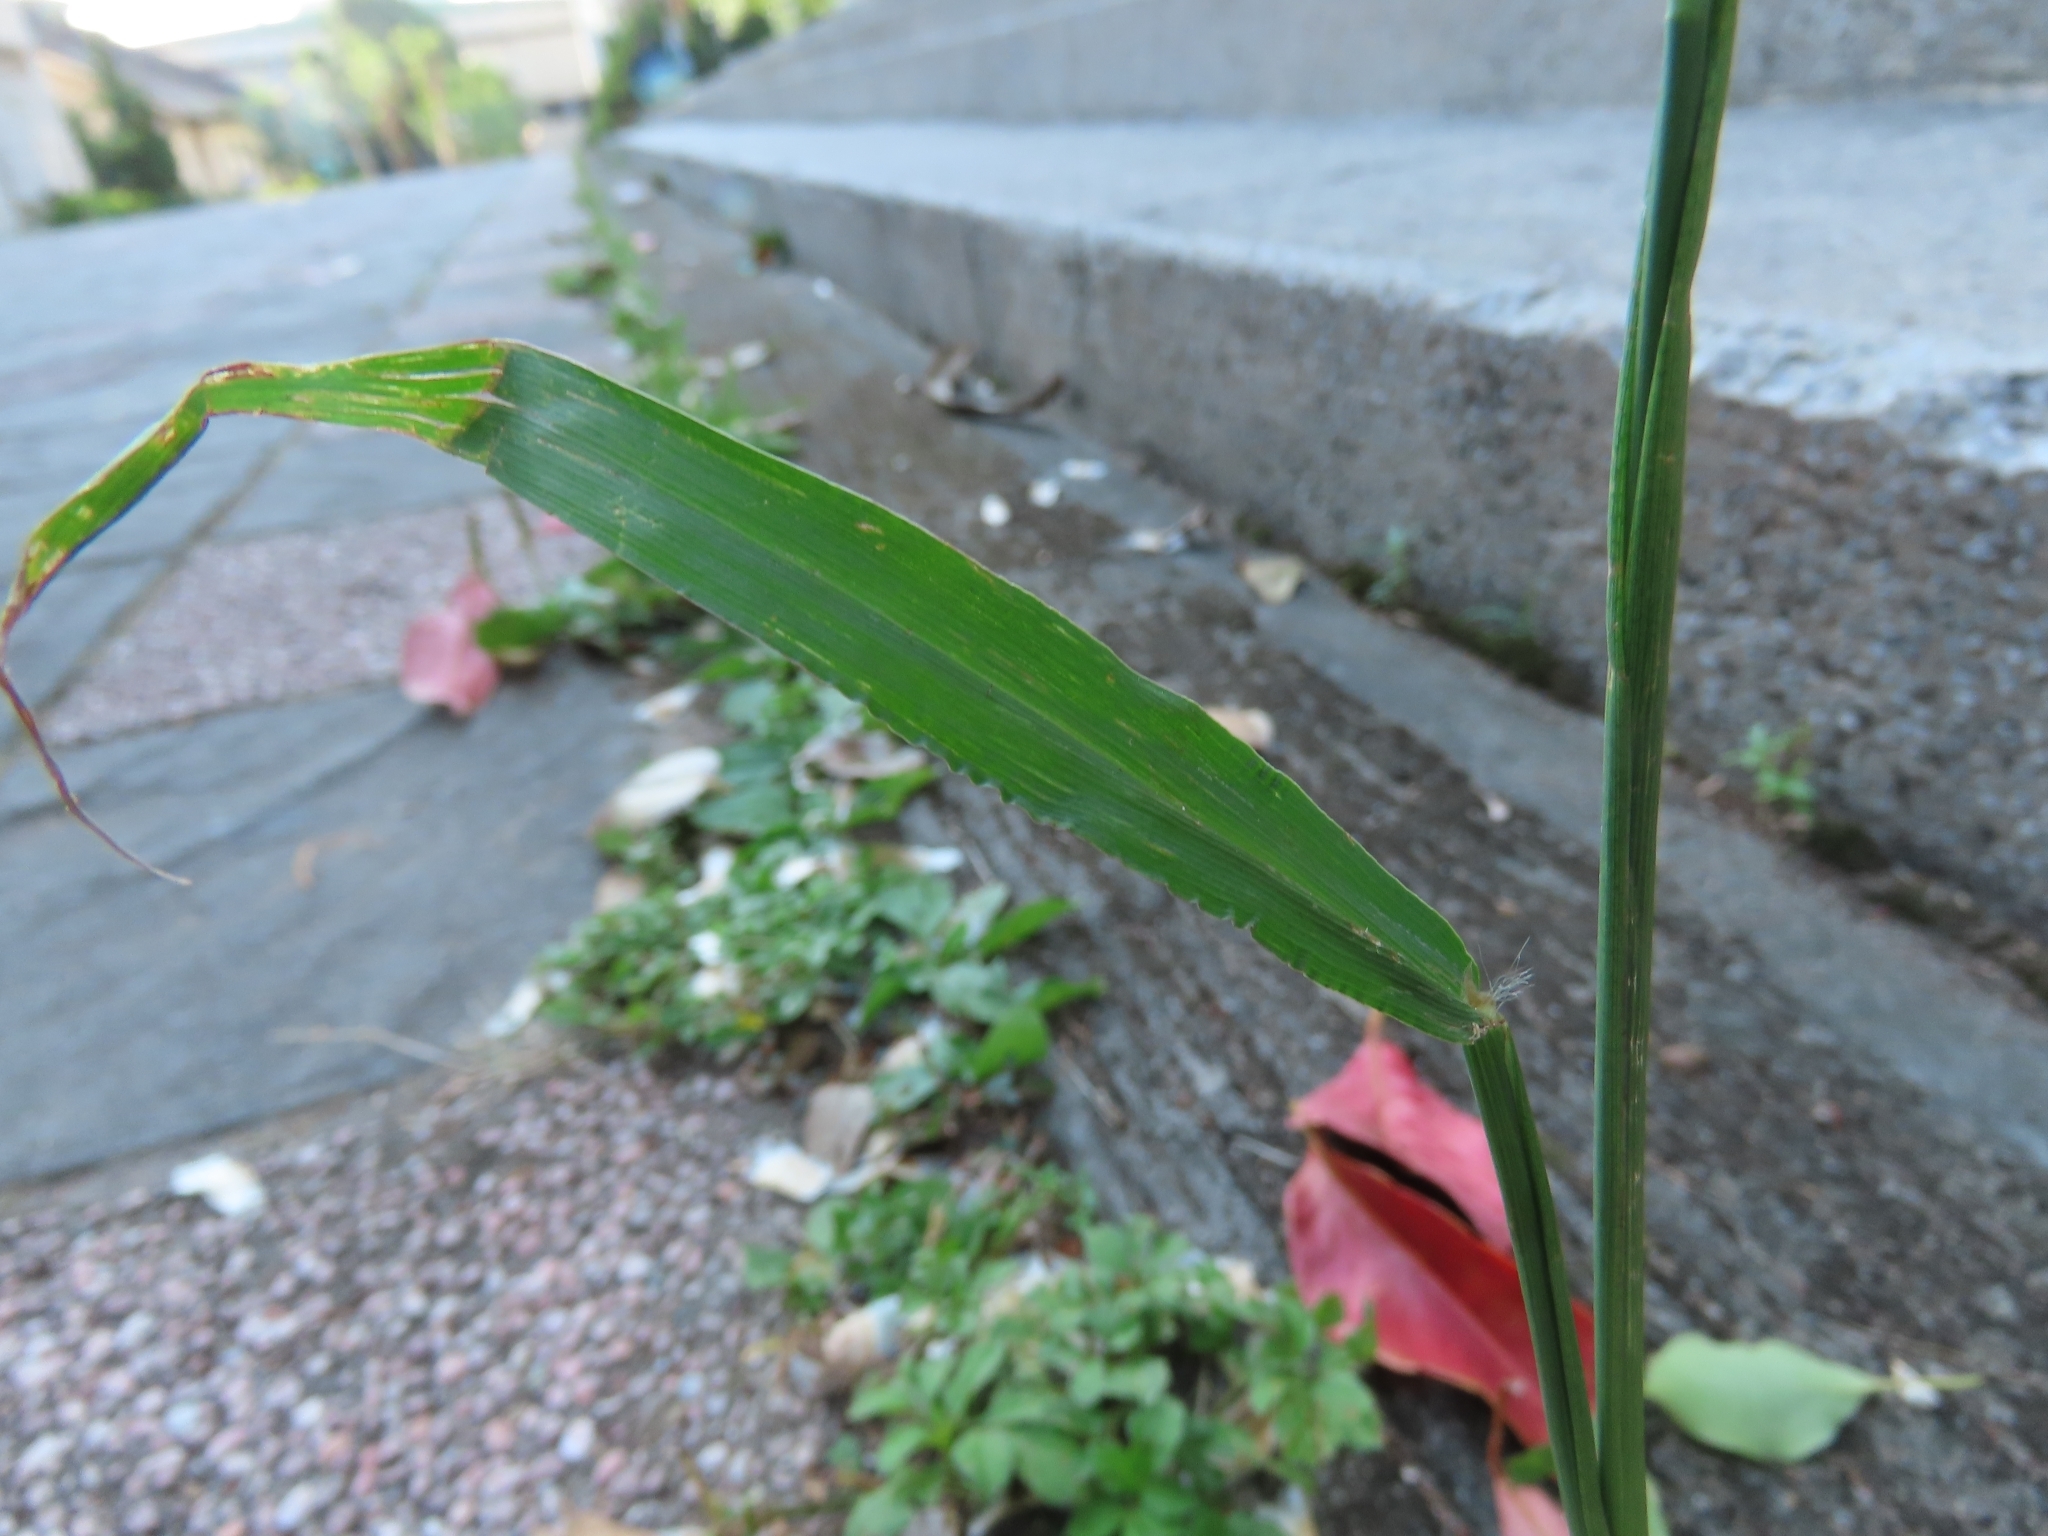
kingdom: Plantae
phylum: Tracheophyta
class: Liliopsida
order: Poales
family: Poaceae
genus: Paspalum
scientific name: Paspalum urvillei
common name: Vasey's grass
